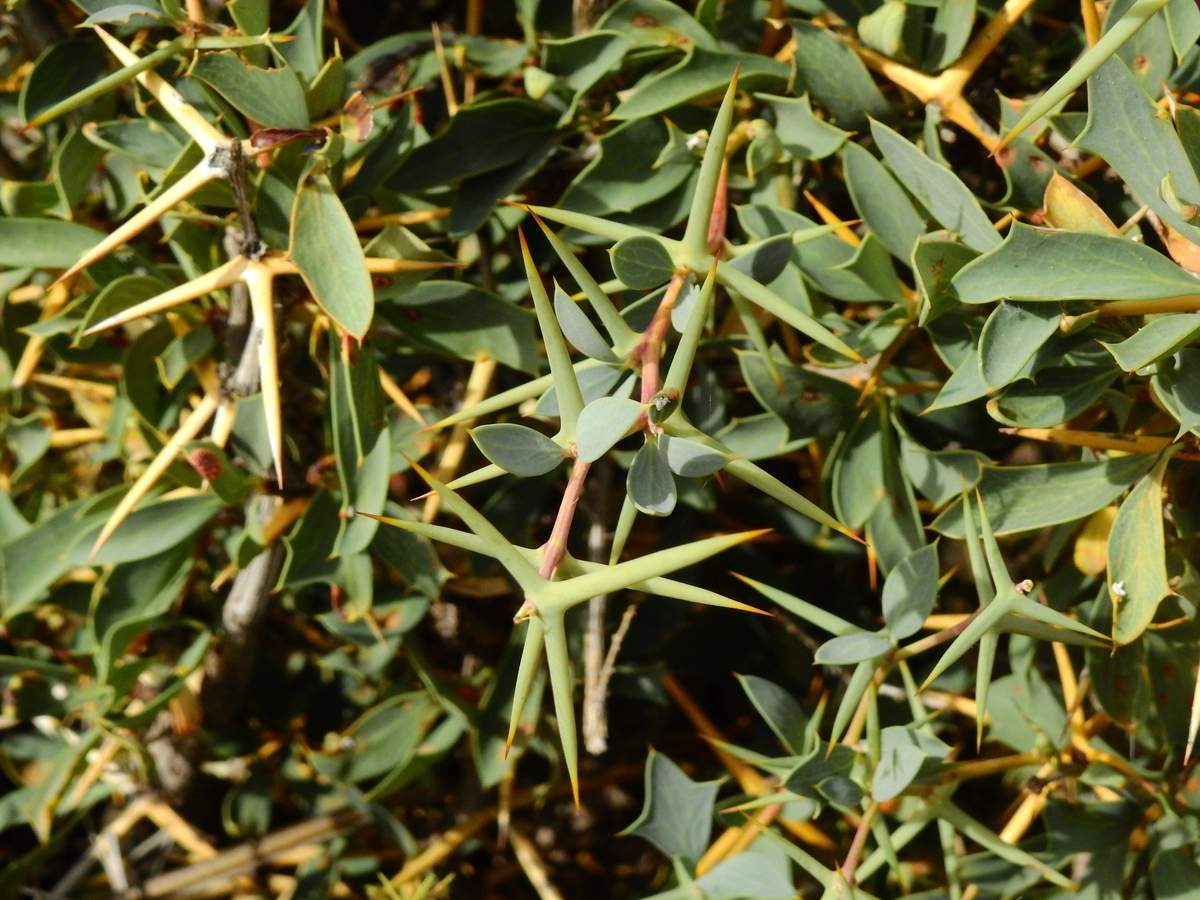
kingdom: Plantae
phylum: Tracheophyta
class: Magnoliopsida
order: Ranunculales
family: Berberidaceae
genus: Berberis
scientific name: Berberis grevilleana
